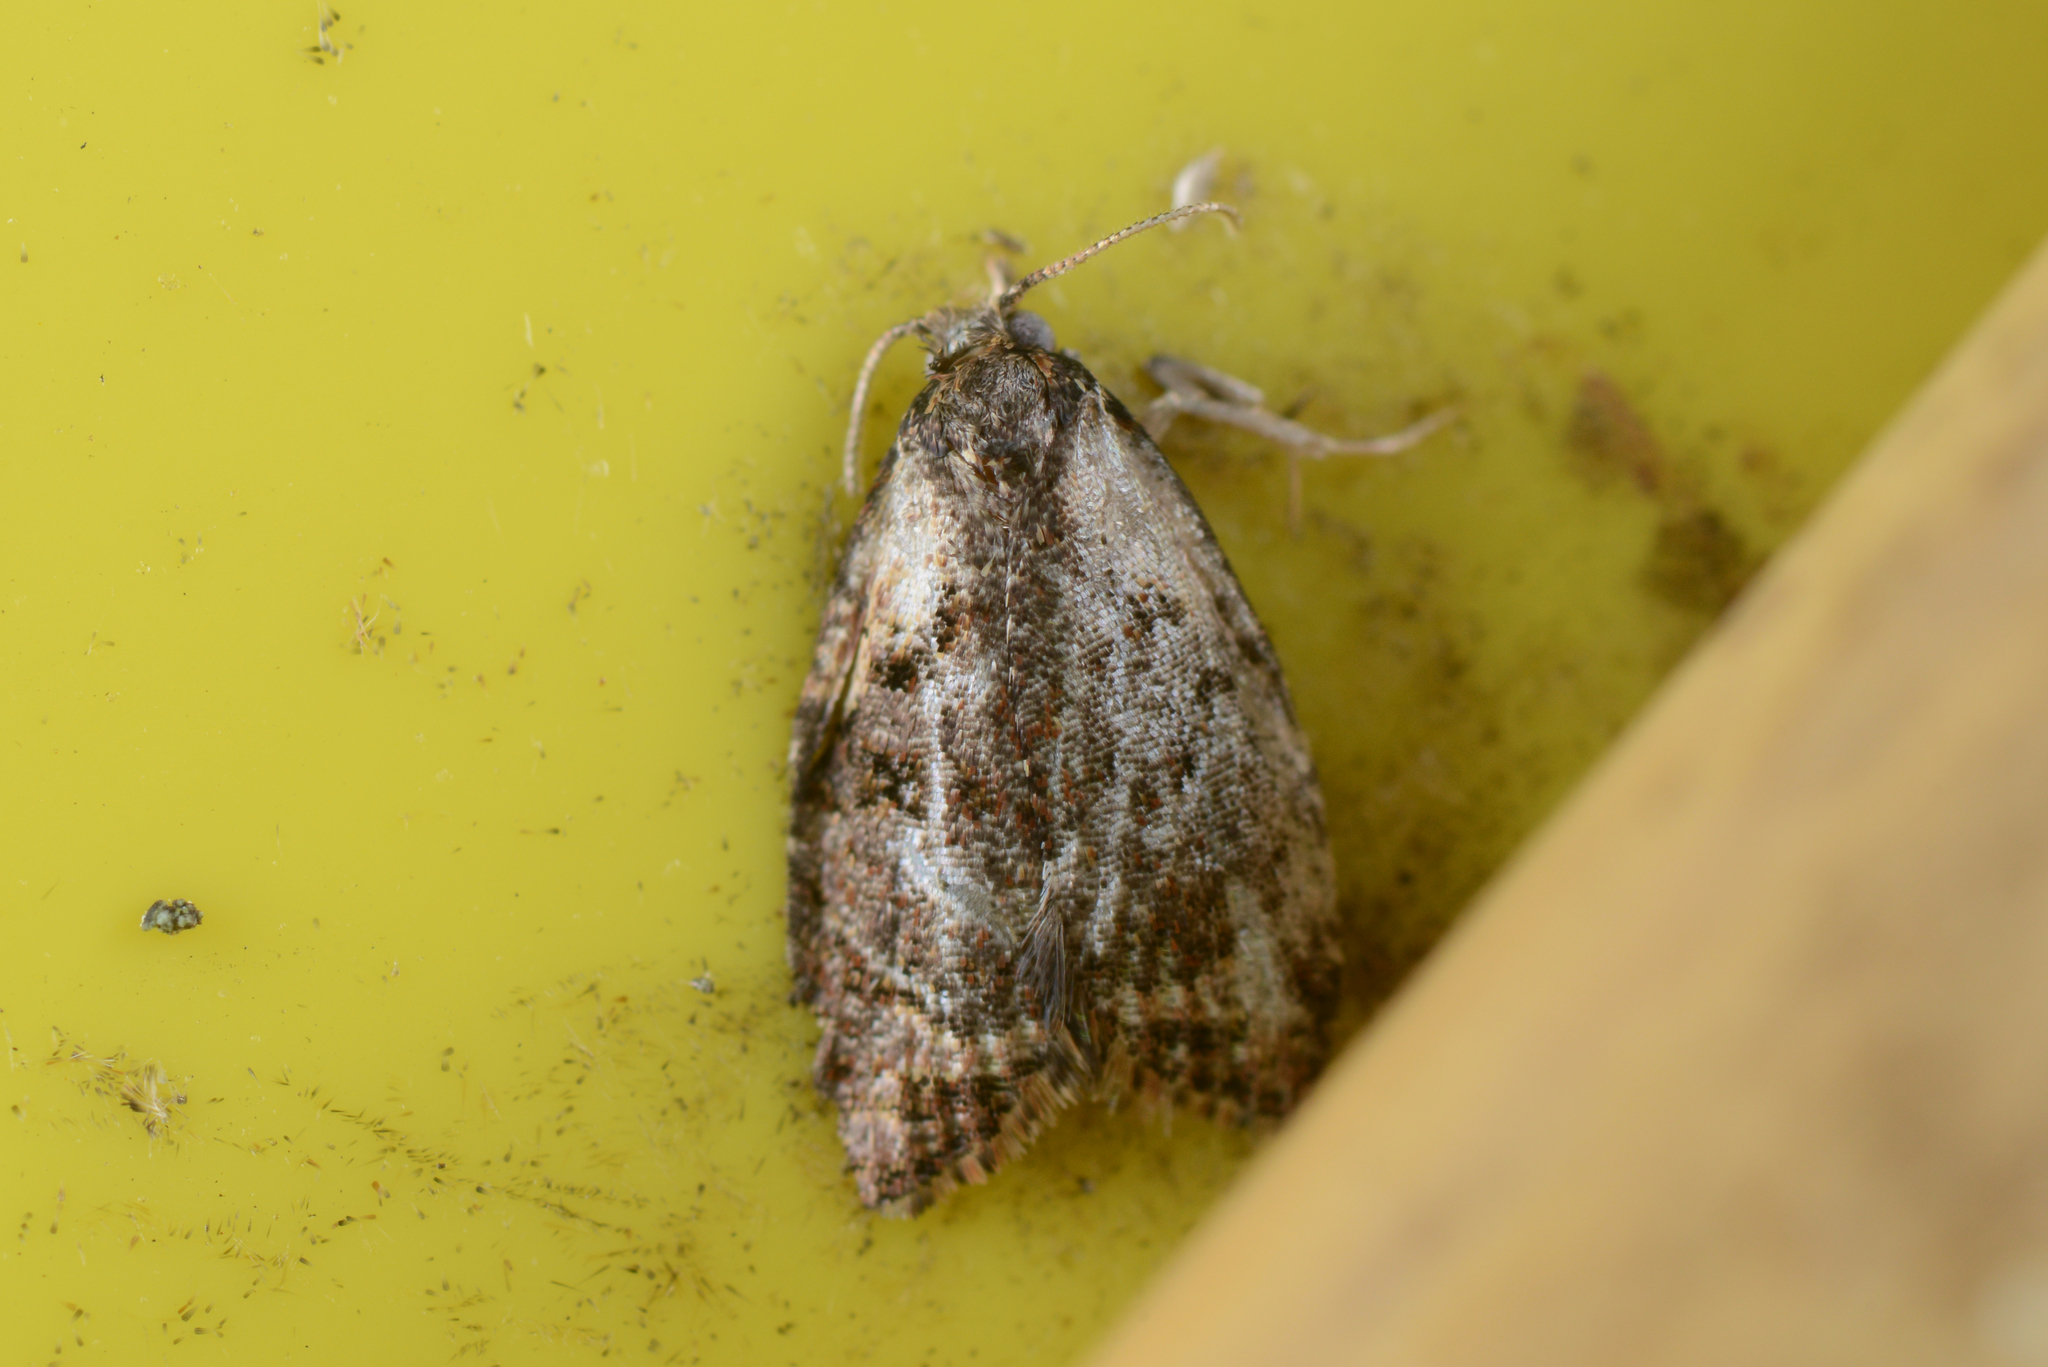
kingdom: Animalia
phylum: Arthropoda
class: Insecta
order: Lepidoptera
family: Tortricidae
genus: Capua
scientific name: Capua intractana
